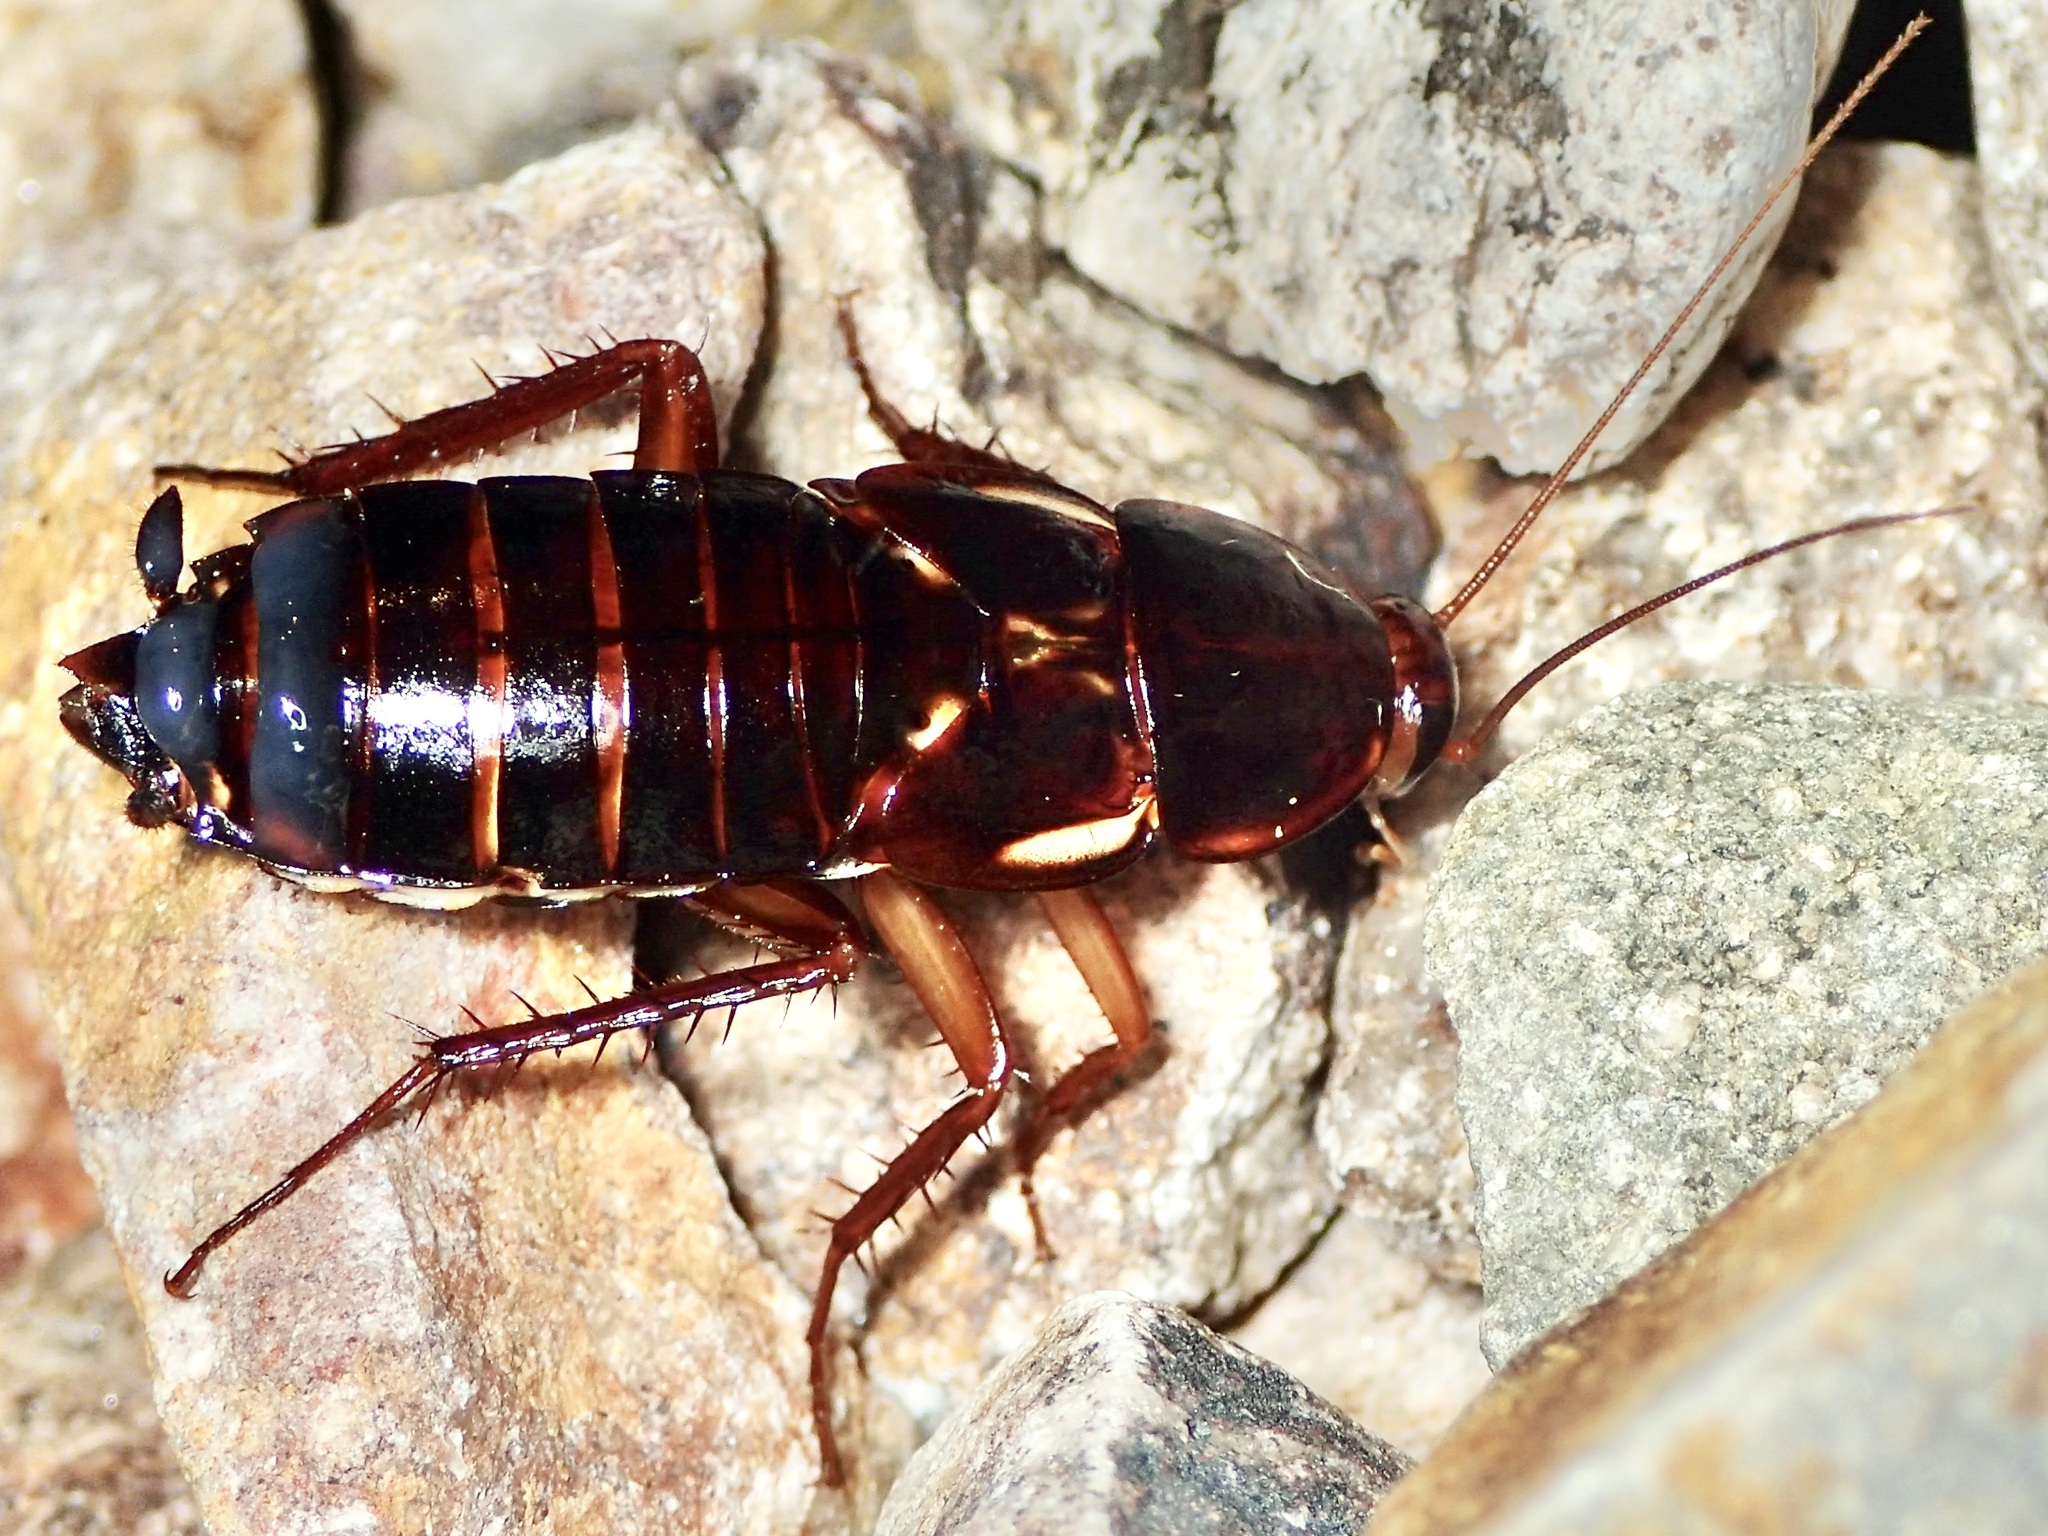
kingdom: Animalia
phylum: Arthropoda
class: Insecta
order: Blattodea
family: Blattidae
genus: Periplaneta
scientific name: Periplaneta lateralis
